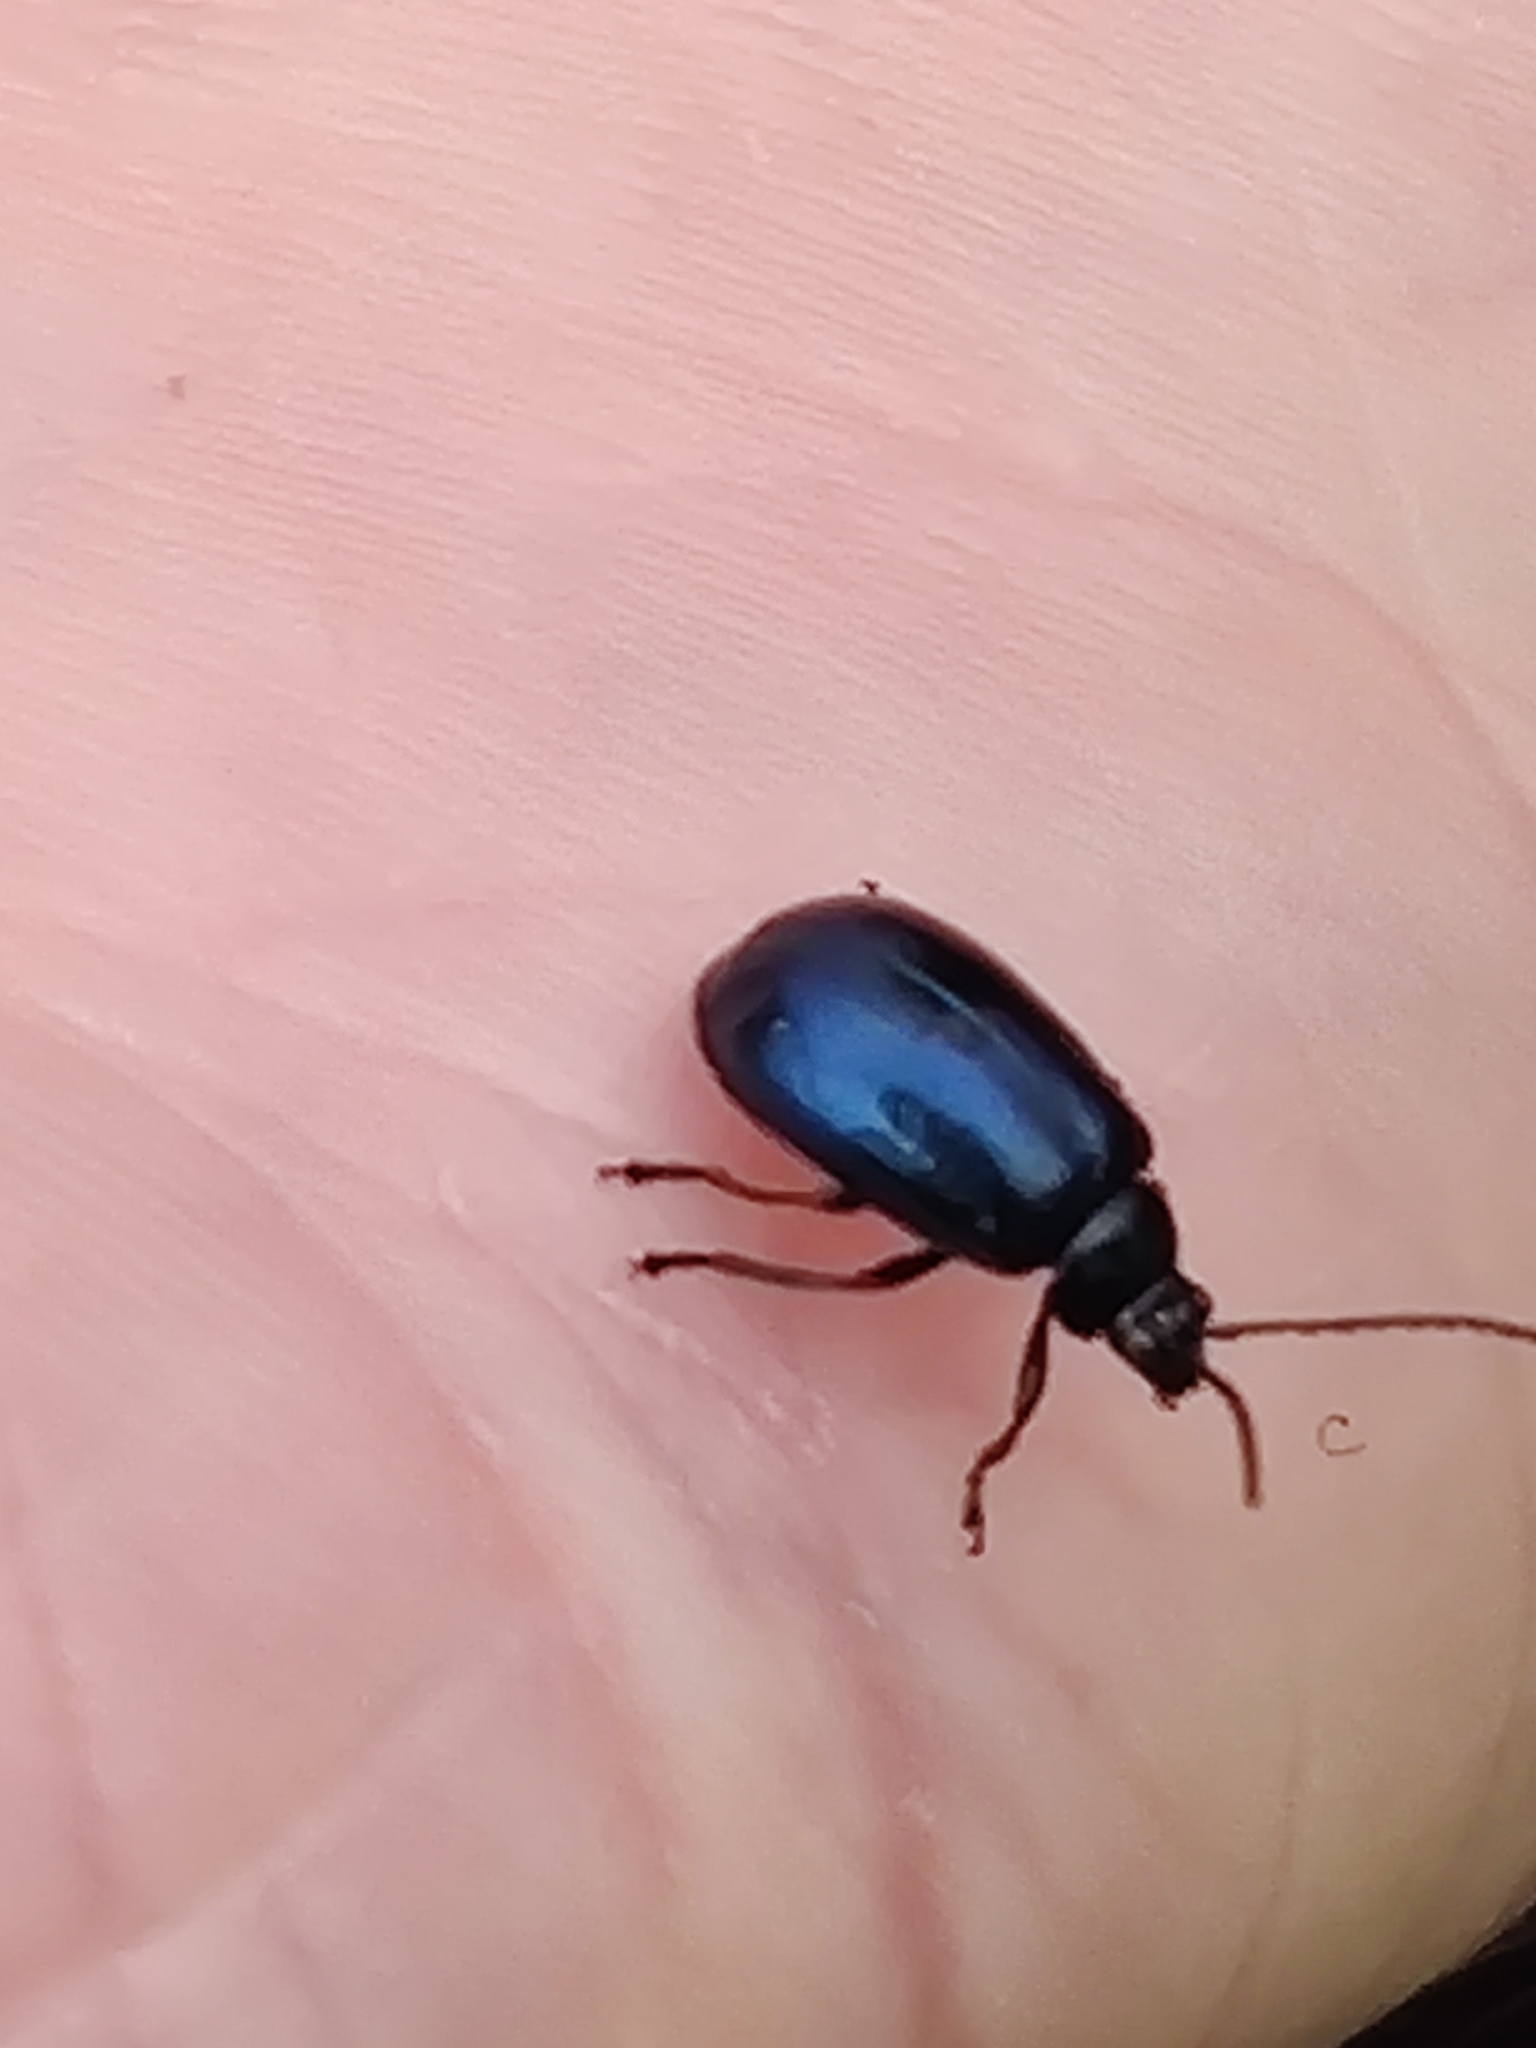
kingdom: Animalia
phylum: Arthropoda
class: Insecta
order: Coleoptera
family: Chrysomelidae
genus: Agelastica
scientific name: Agelastica alni
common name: Alder leaf beetle
